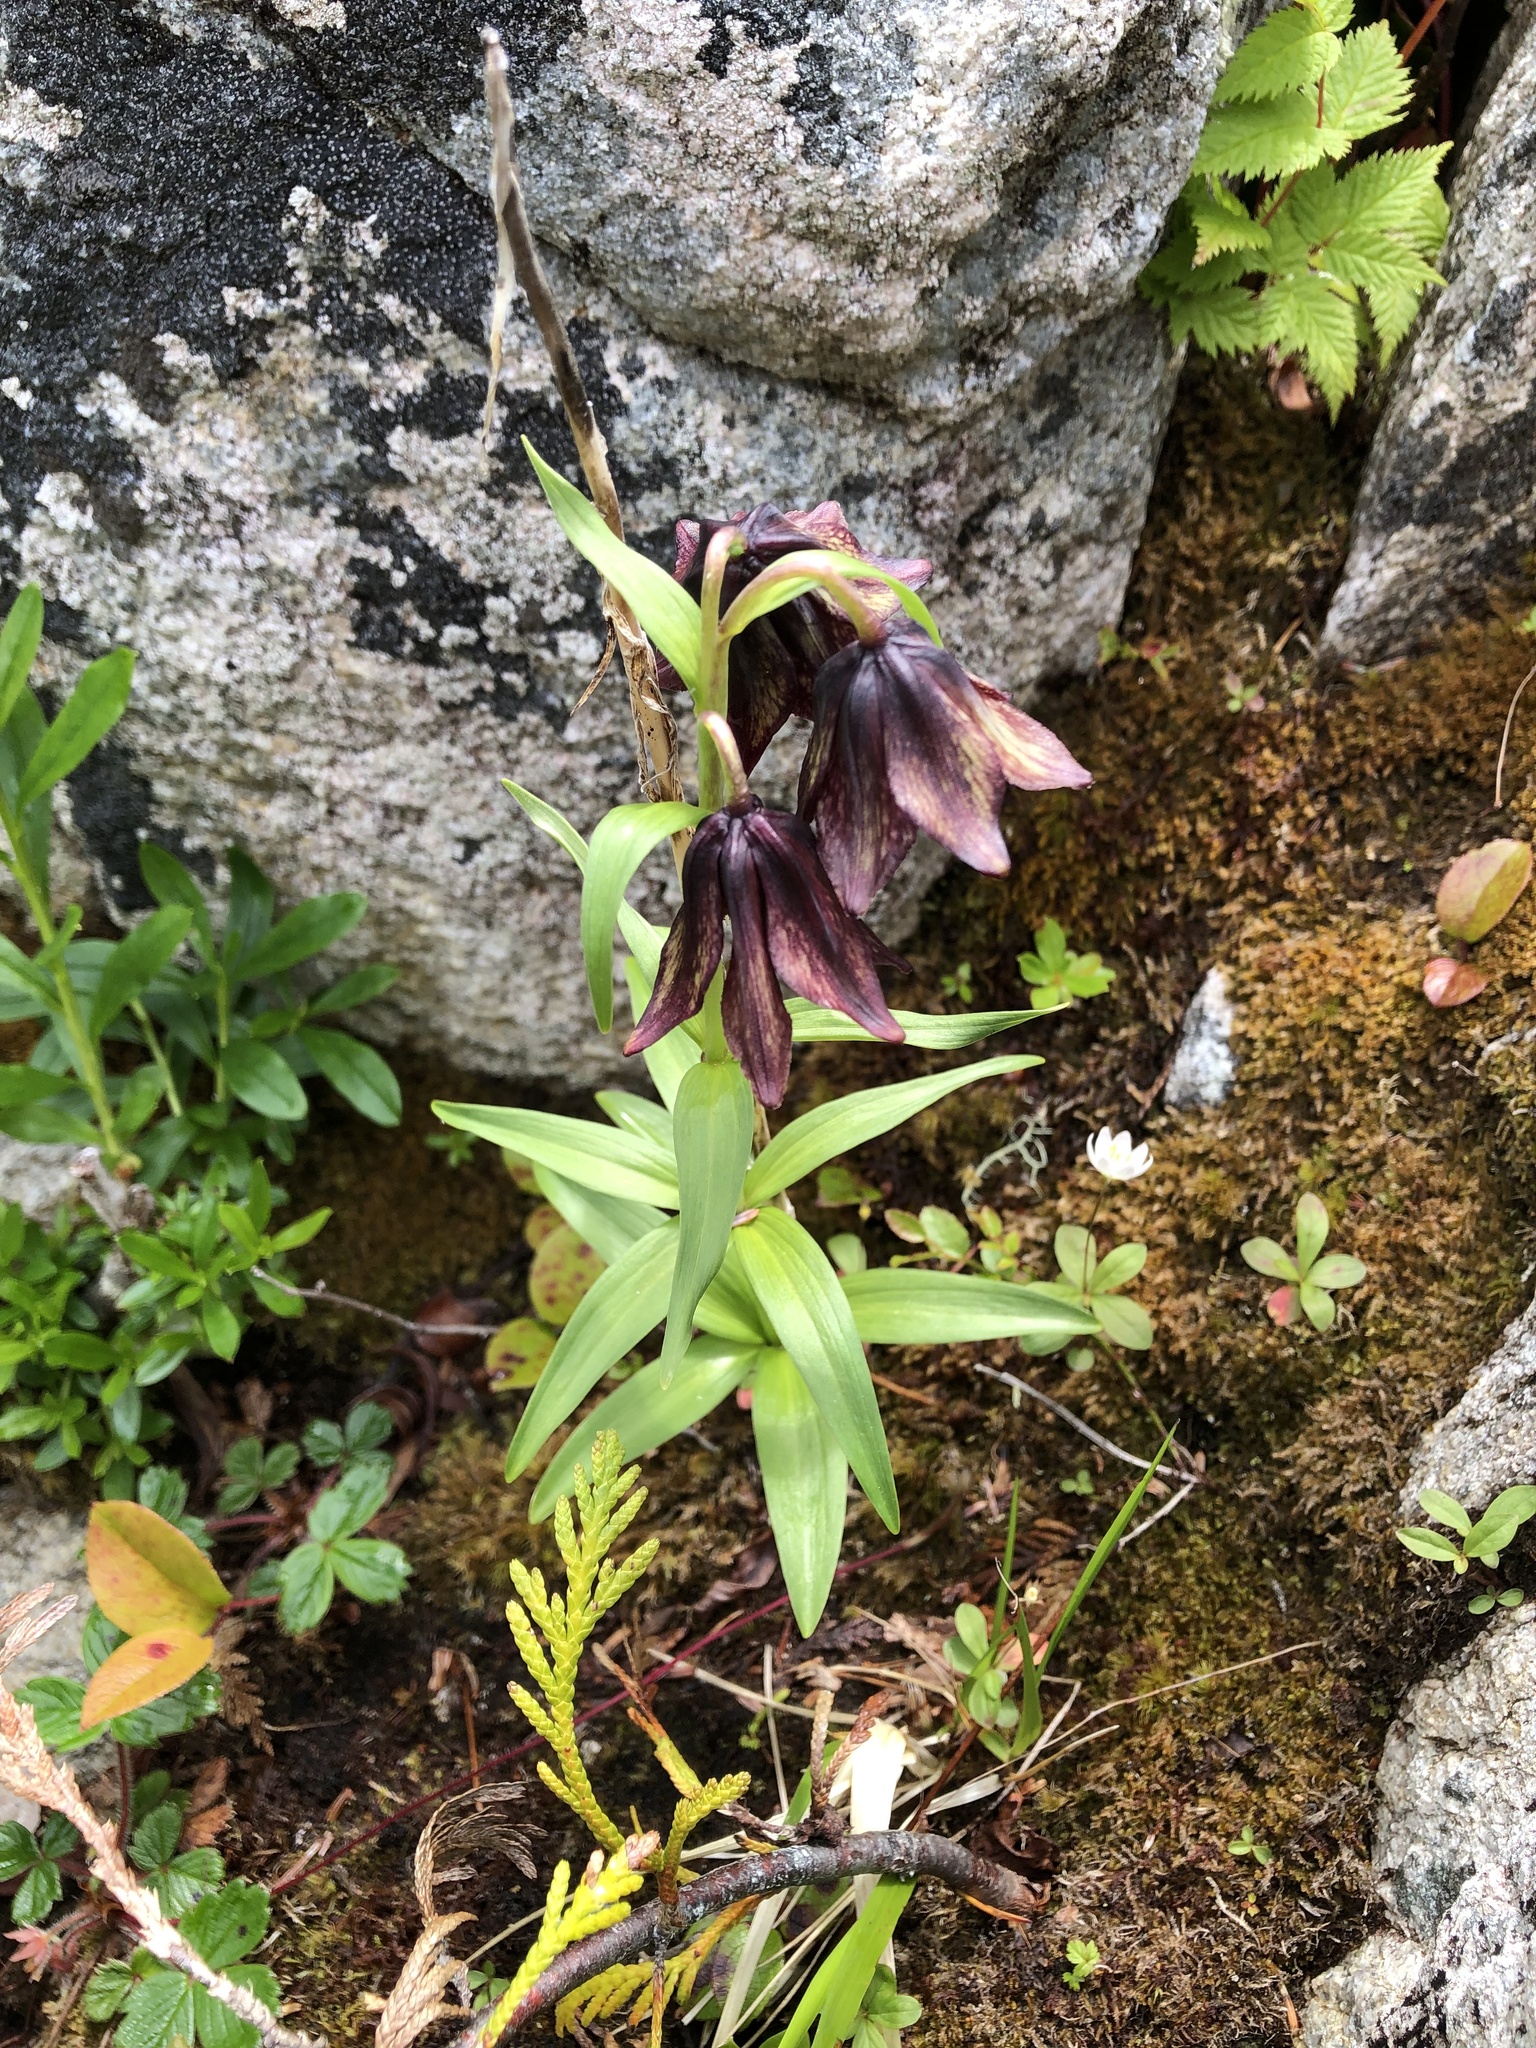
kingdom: Plantae
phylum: Tracheophyta
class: Liliopsida
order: Liliales
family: Liliaceae
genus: Fritillaria
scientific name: Fritillaria camschatcensis
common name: Kamchatka fritillary
